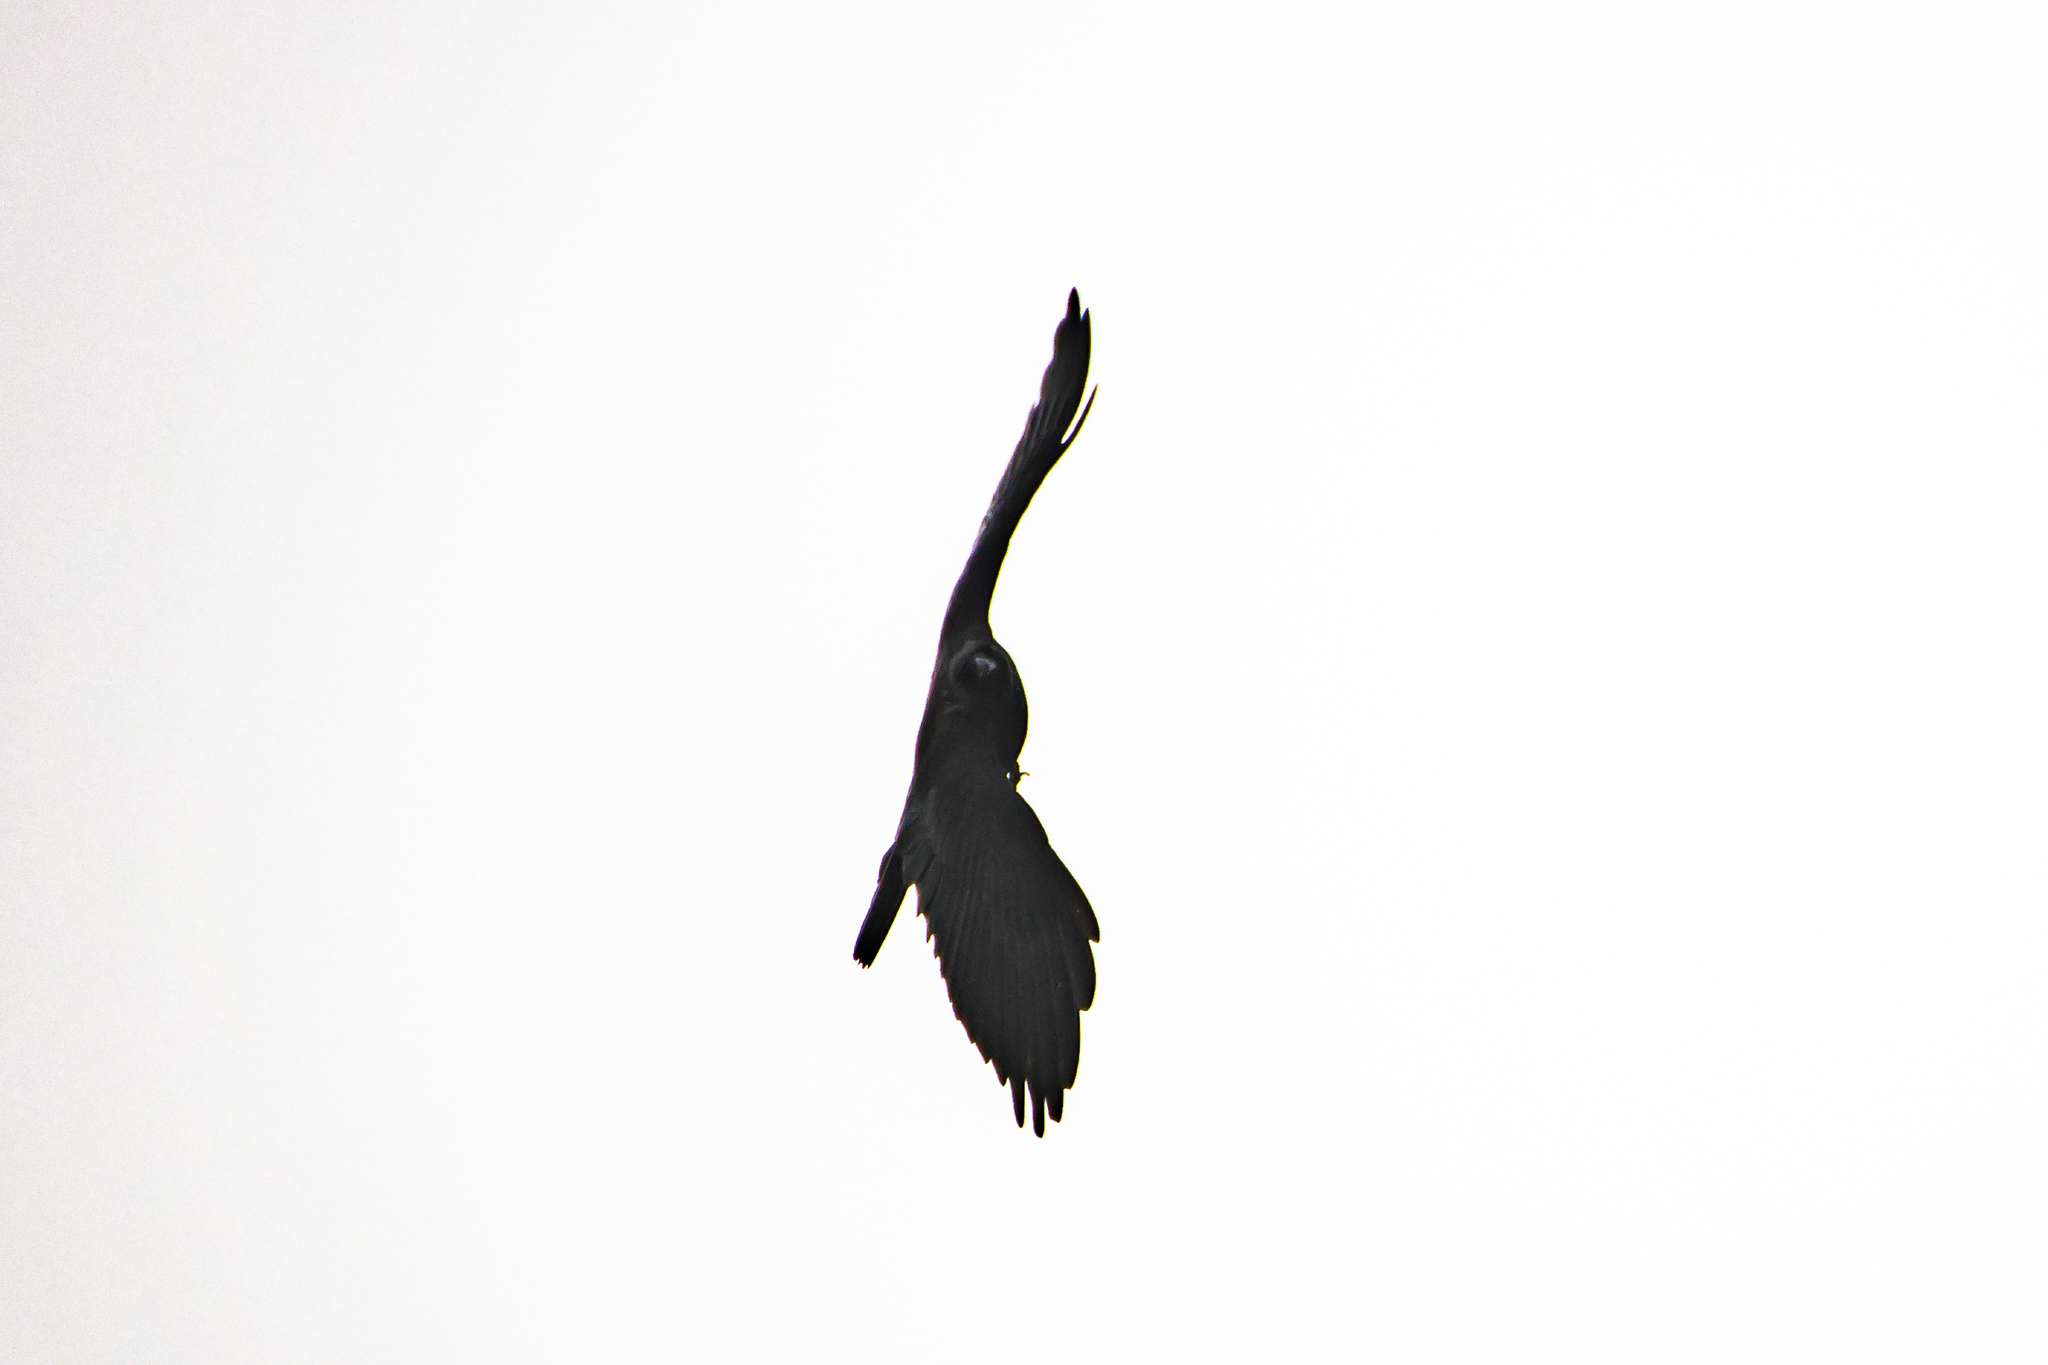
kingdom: Animalia
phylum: Chordata
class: Aves
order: Passeriformes
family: Corvidae
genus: Corvus
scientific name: Corvus corone
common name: Carrion crow
